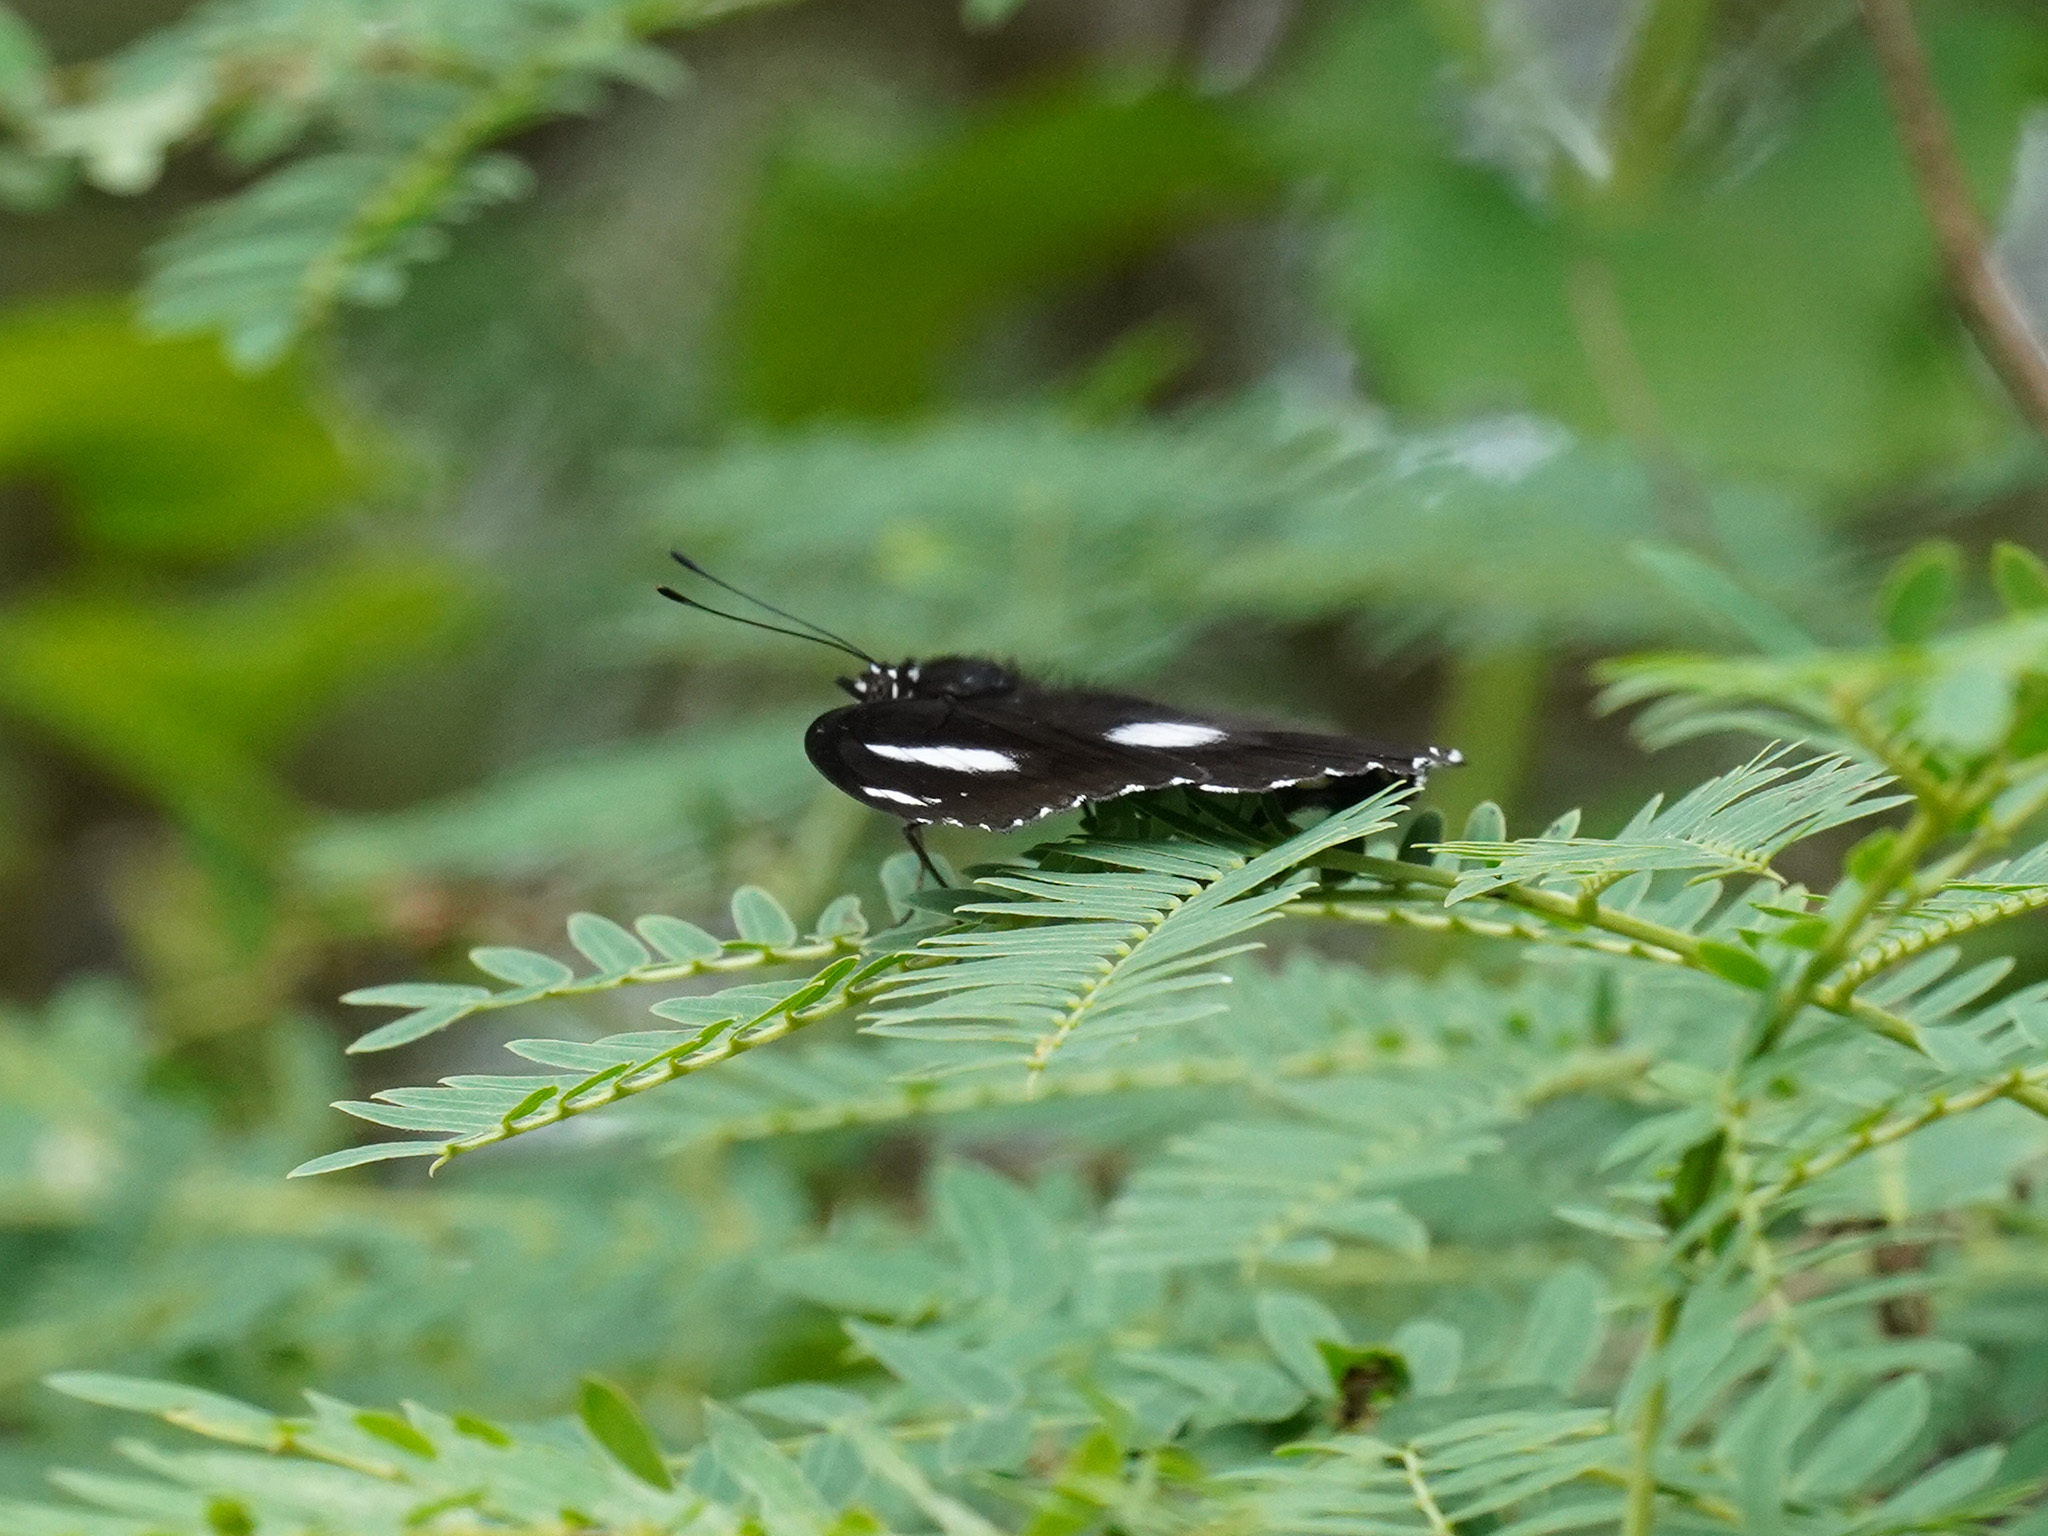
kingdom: Animalia
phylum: Arthropoda
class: Insecta
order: Lepidoptera
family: Nymphalidae
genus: Hypolimnas
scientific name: Hypolimnas bolina
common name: Great eggfly
